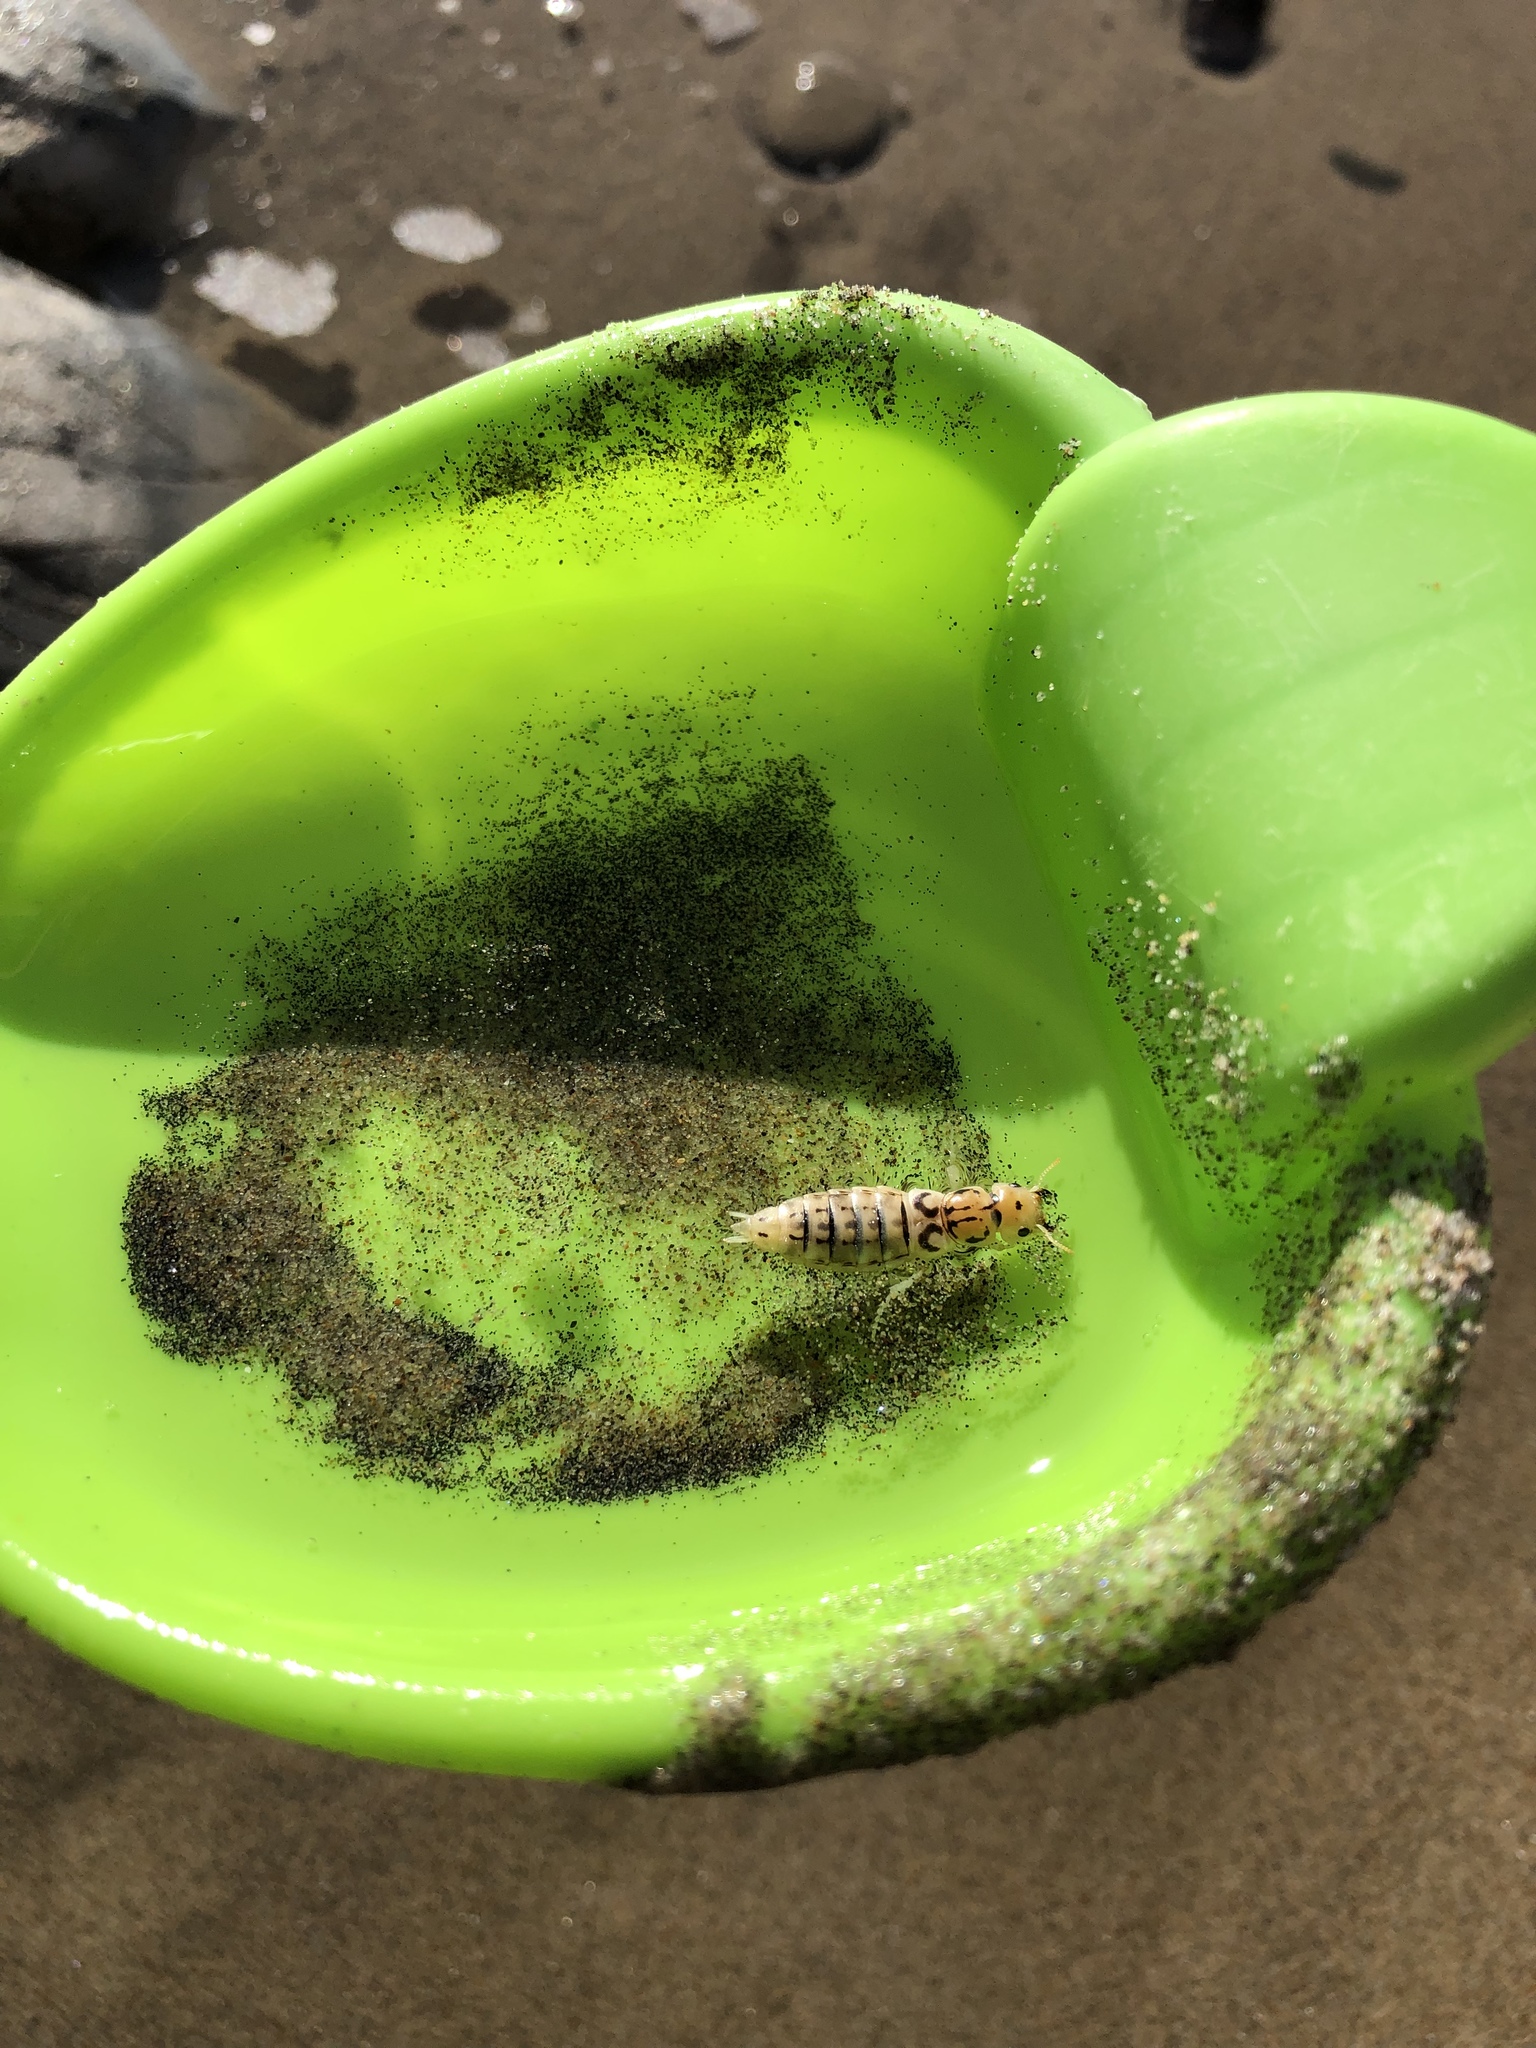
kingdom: Animalia
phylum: Arthropoda
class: Insecta
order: Coleoptera
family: Staphylinidae
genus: Thinopinus
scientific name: Thinopinus pictus
